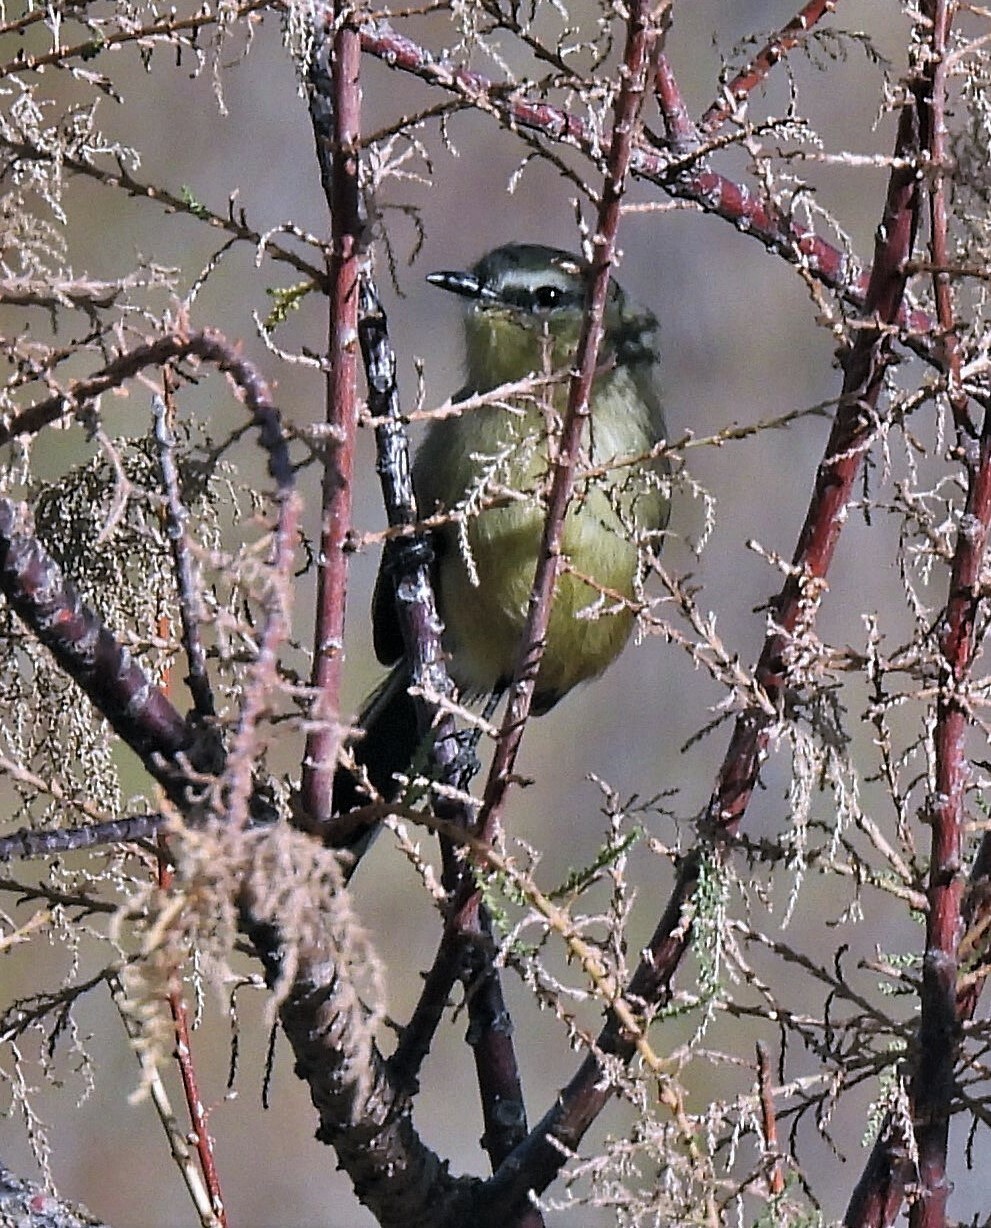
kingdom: Animalia
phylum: Chordata
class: Aves
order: Passeriformes
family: Tyrannidae
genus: Stigmatura
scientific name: Stigmatura budytoides
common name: Greater wagtail-tyrant
